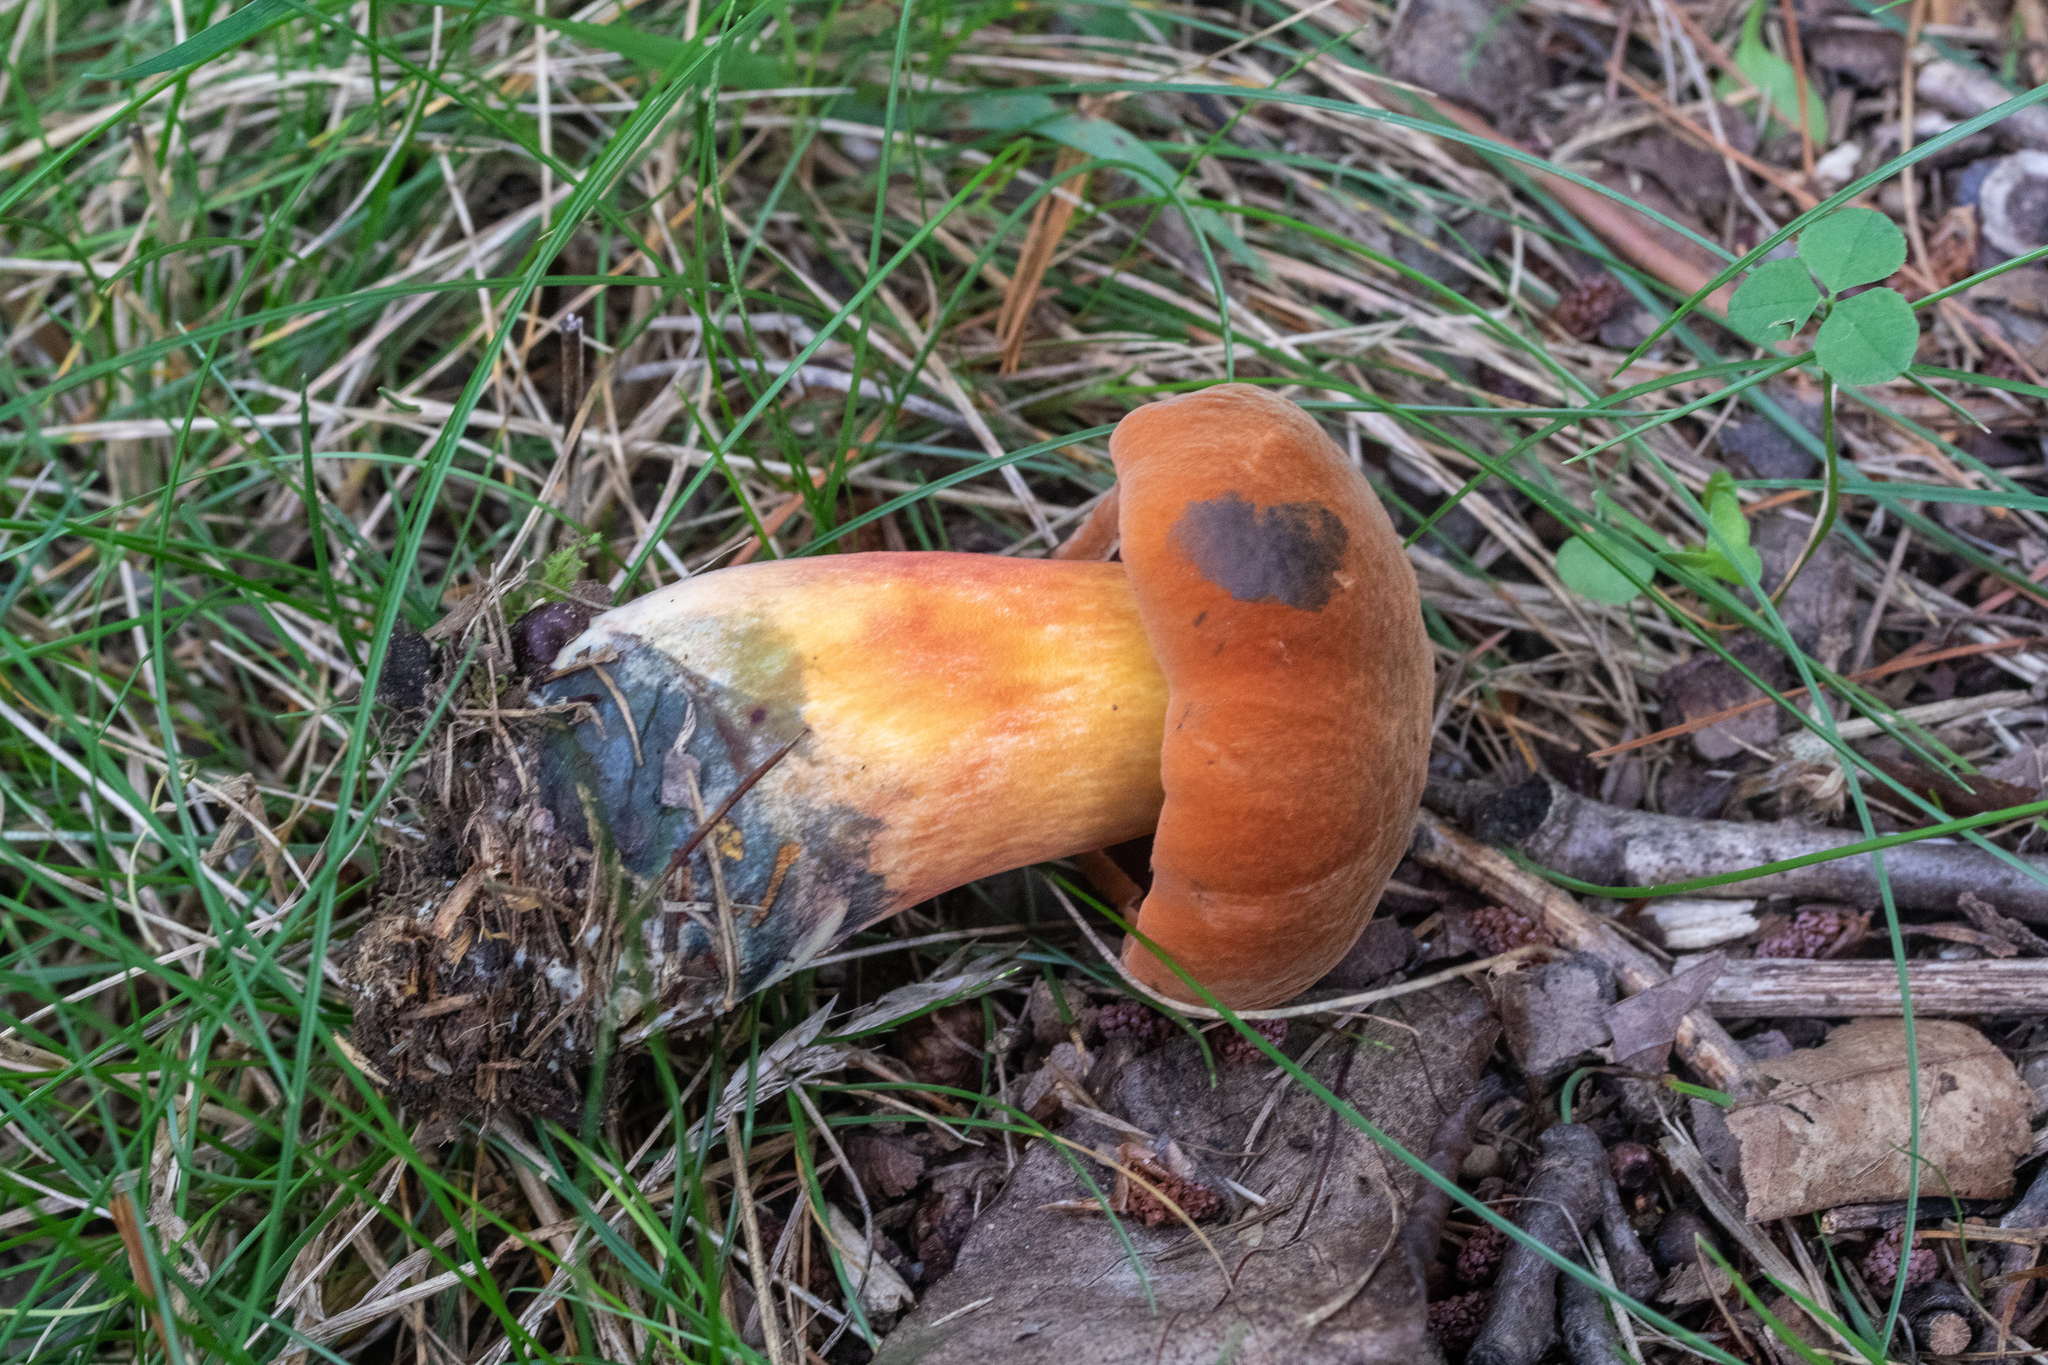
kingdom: Fungi
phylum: Basidiomycota
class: Agaricomycetes
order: Boletales
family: Boletaceae
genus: Boletus
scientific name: Boletus subluridellus
